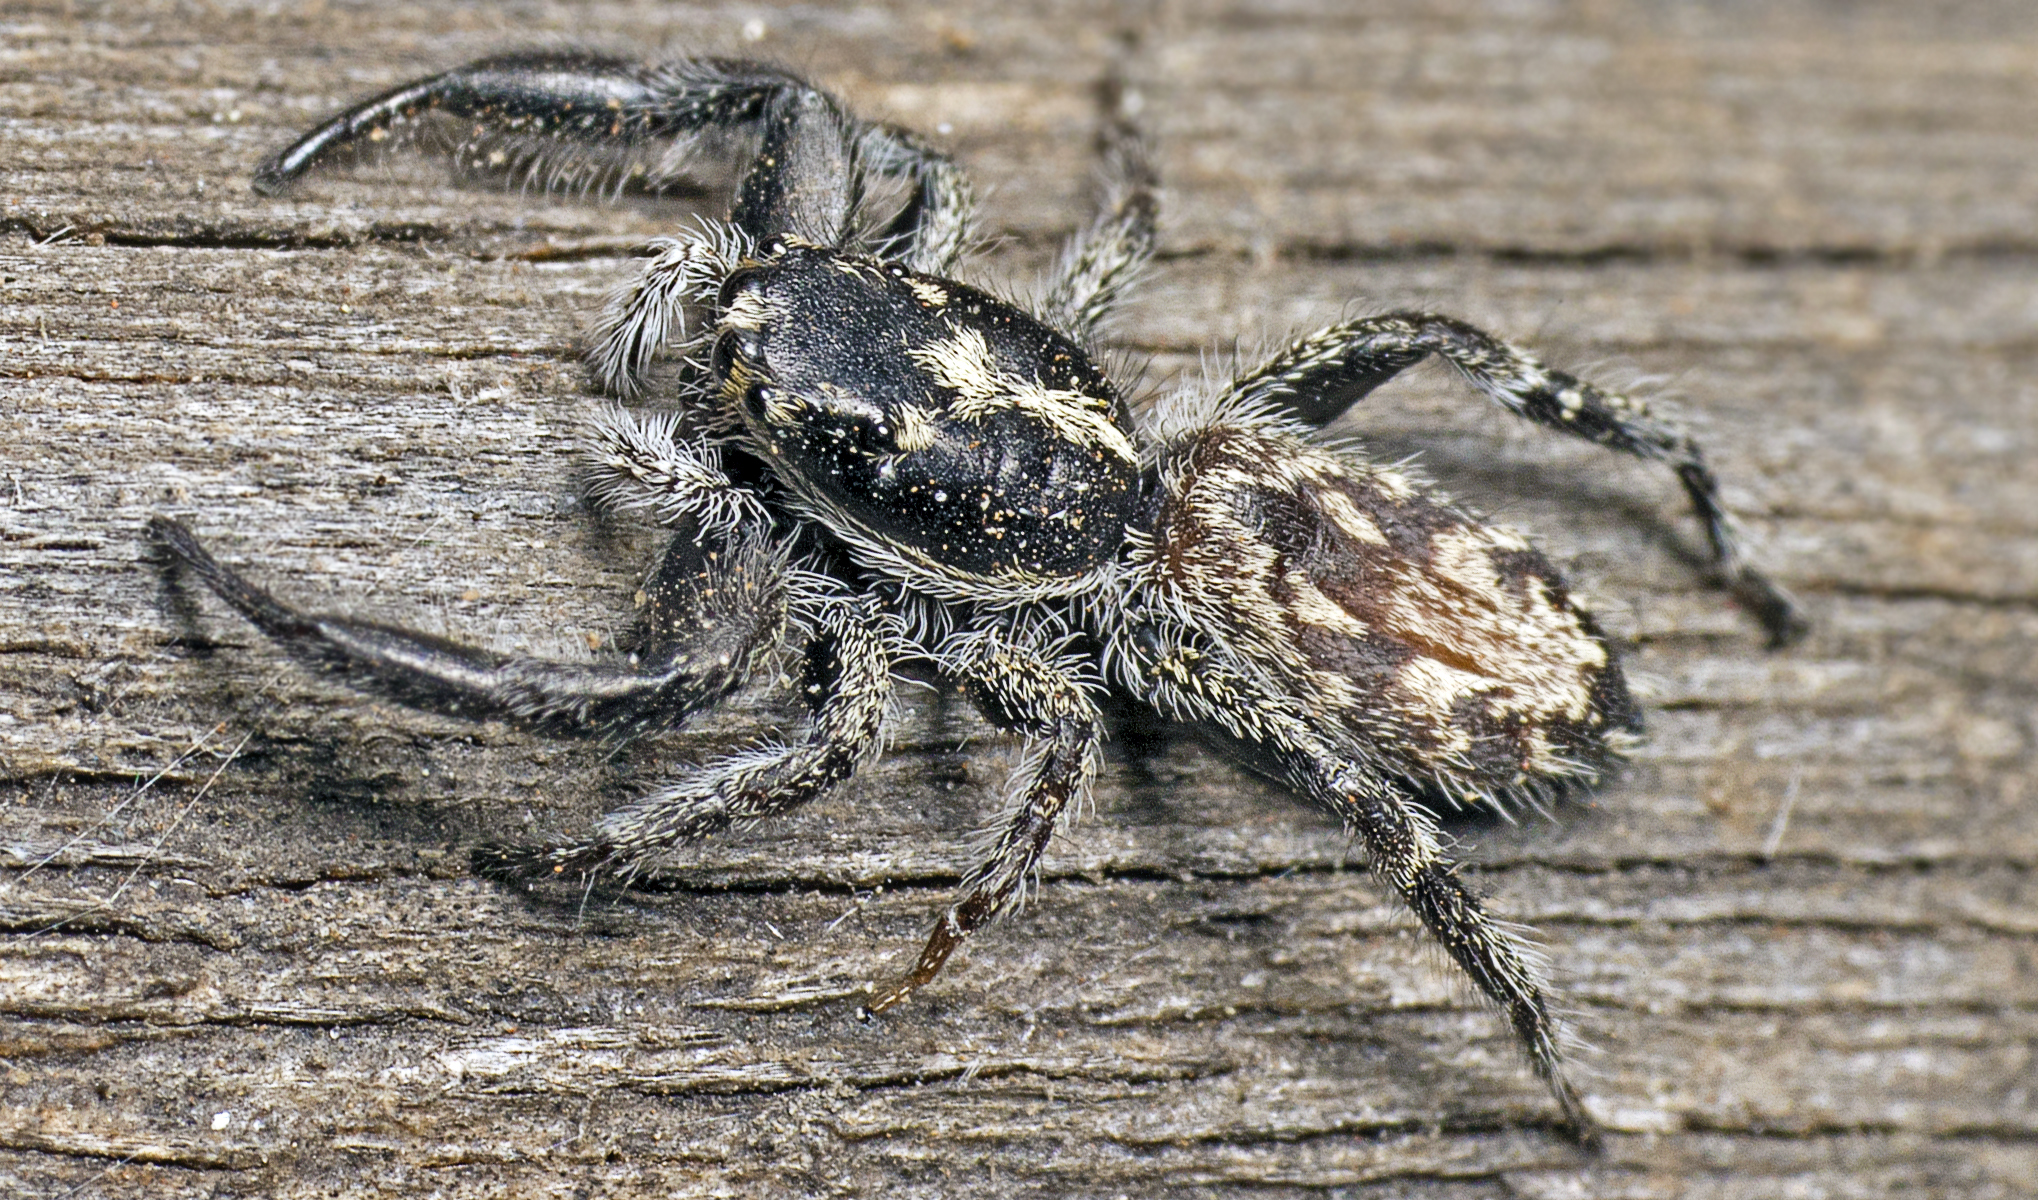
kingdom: Animalia
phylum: Arthropoda
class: Arachnida
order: Araneae
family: Salticidae
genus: Ocrisiona
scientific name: Ocrisiona melancholica
